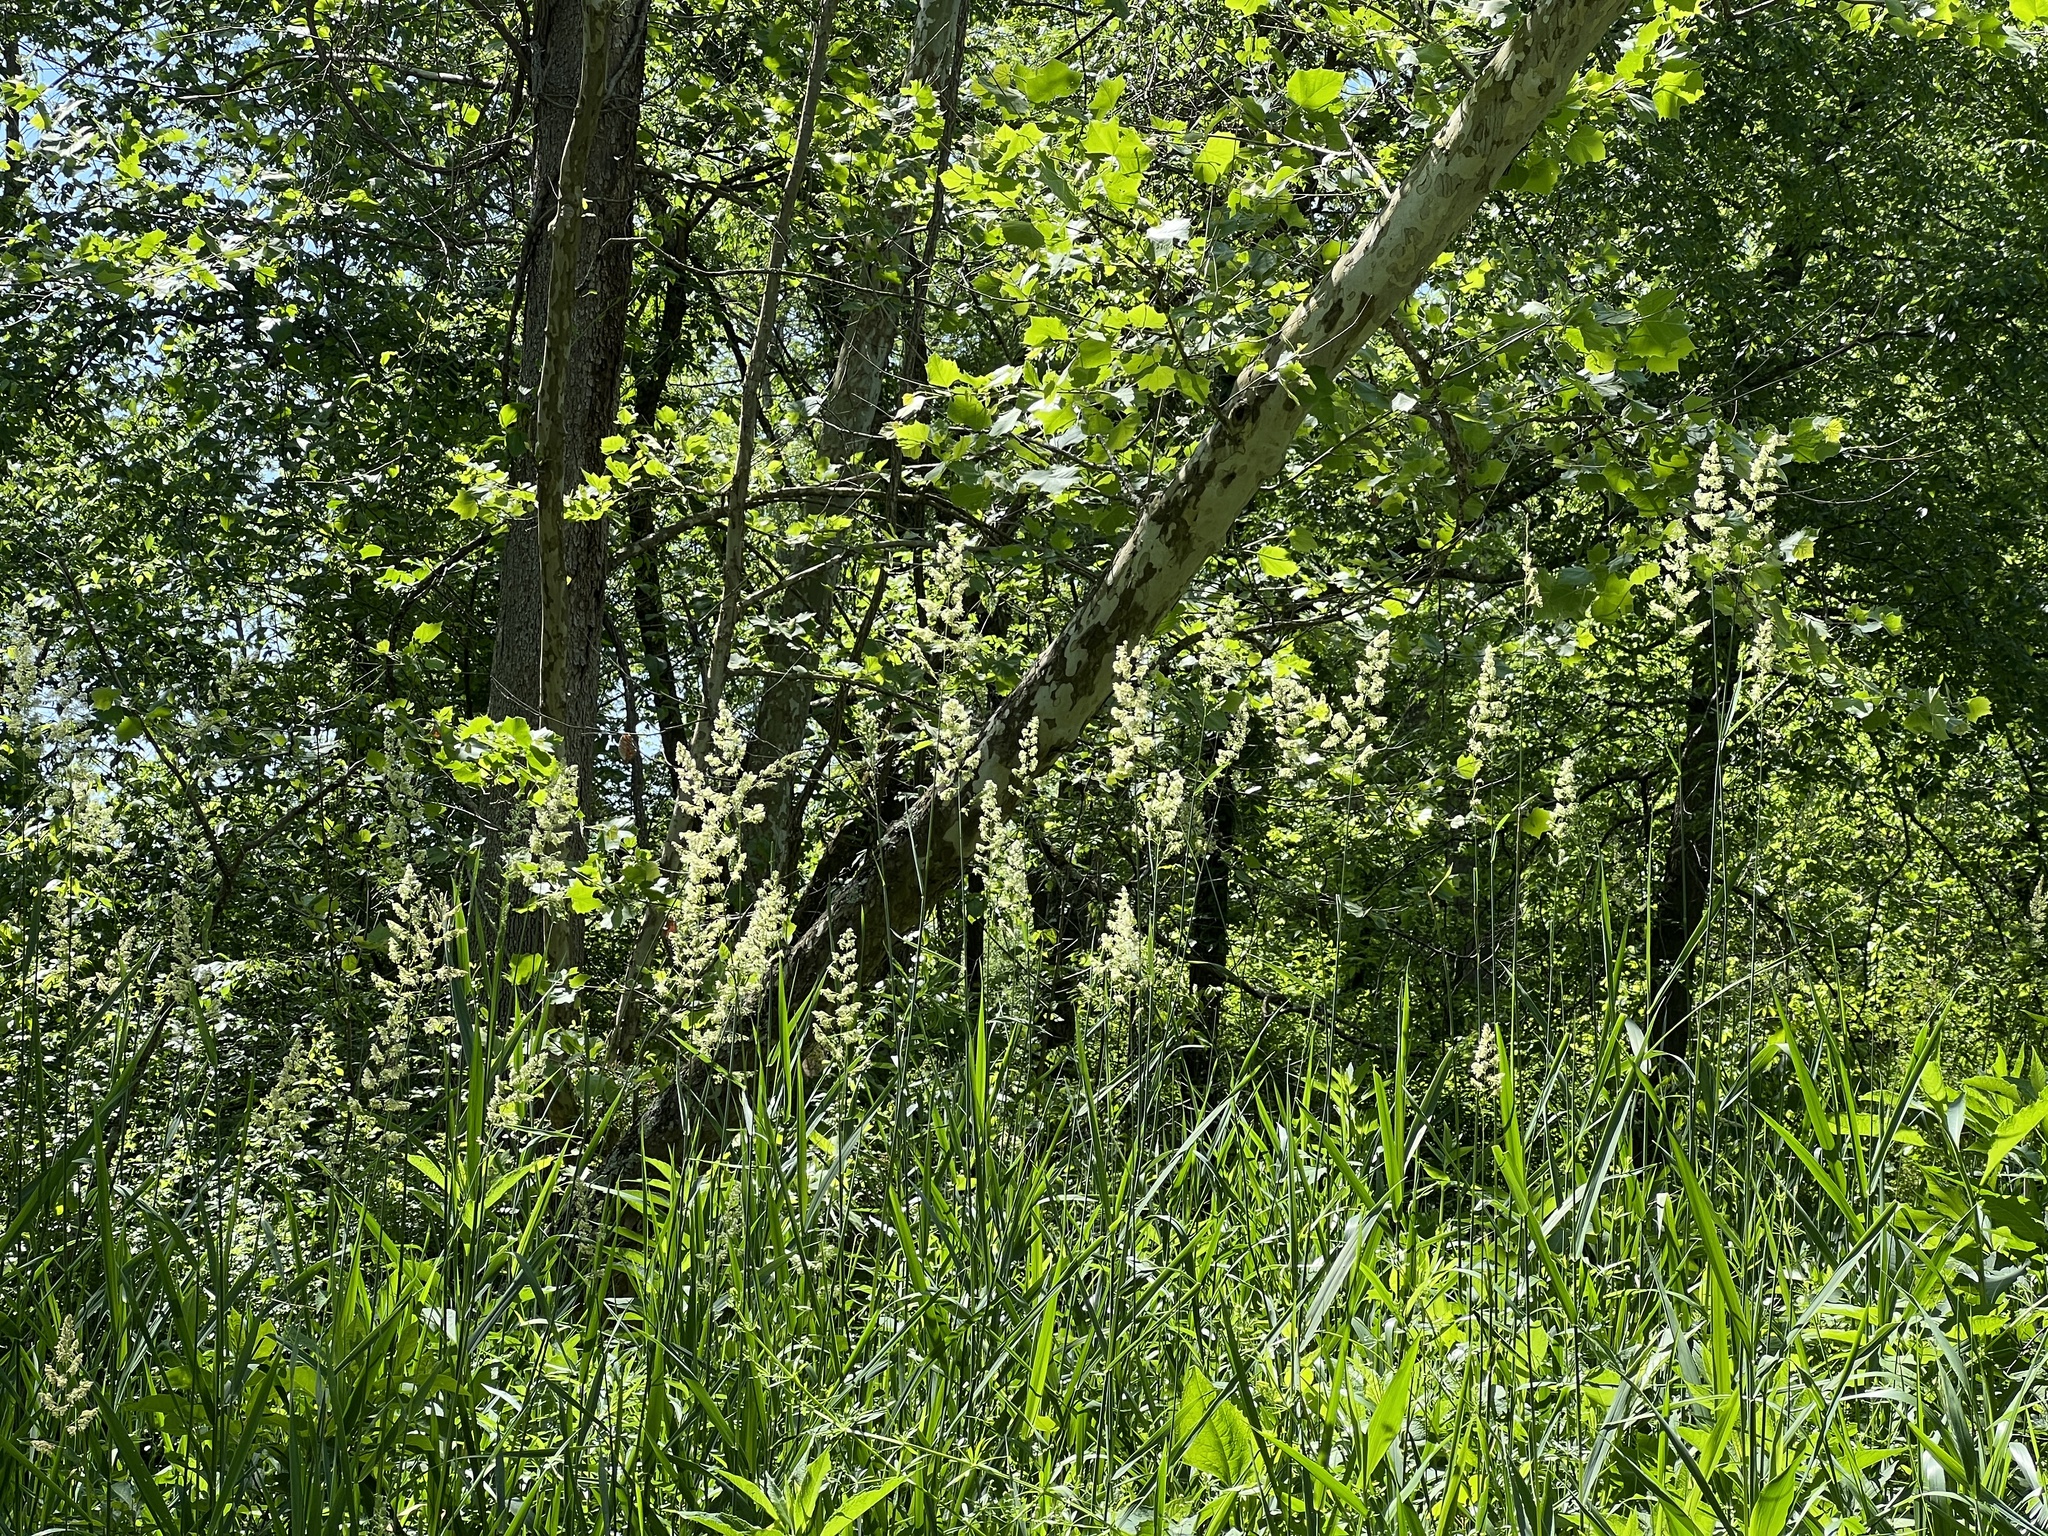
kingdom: Plantae
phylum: Tracheophyta
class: Liliopsida
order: Poales
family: Poaceae
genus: Phalaris
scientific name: Phalaris arundinacea
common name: Reed canary-grass
